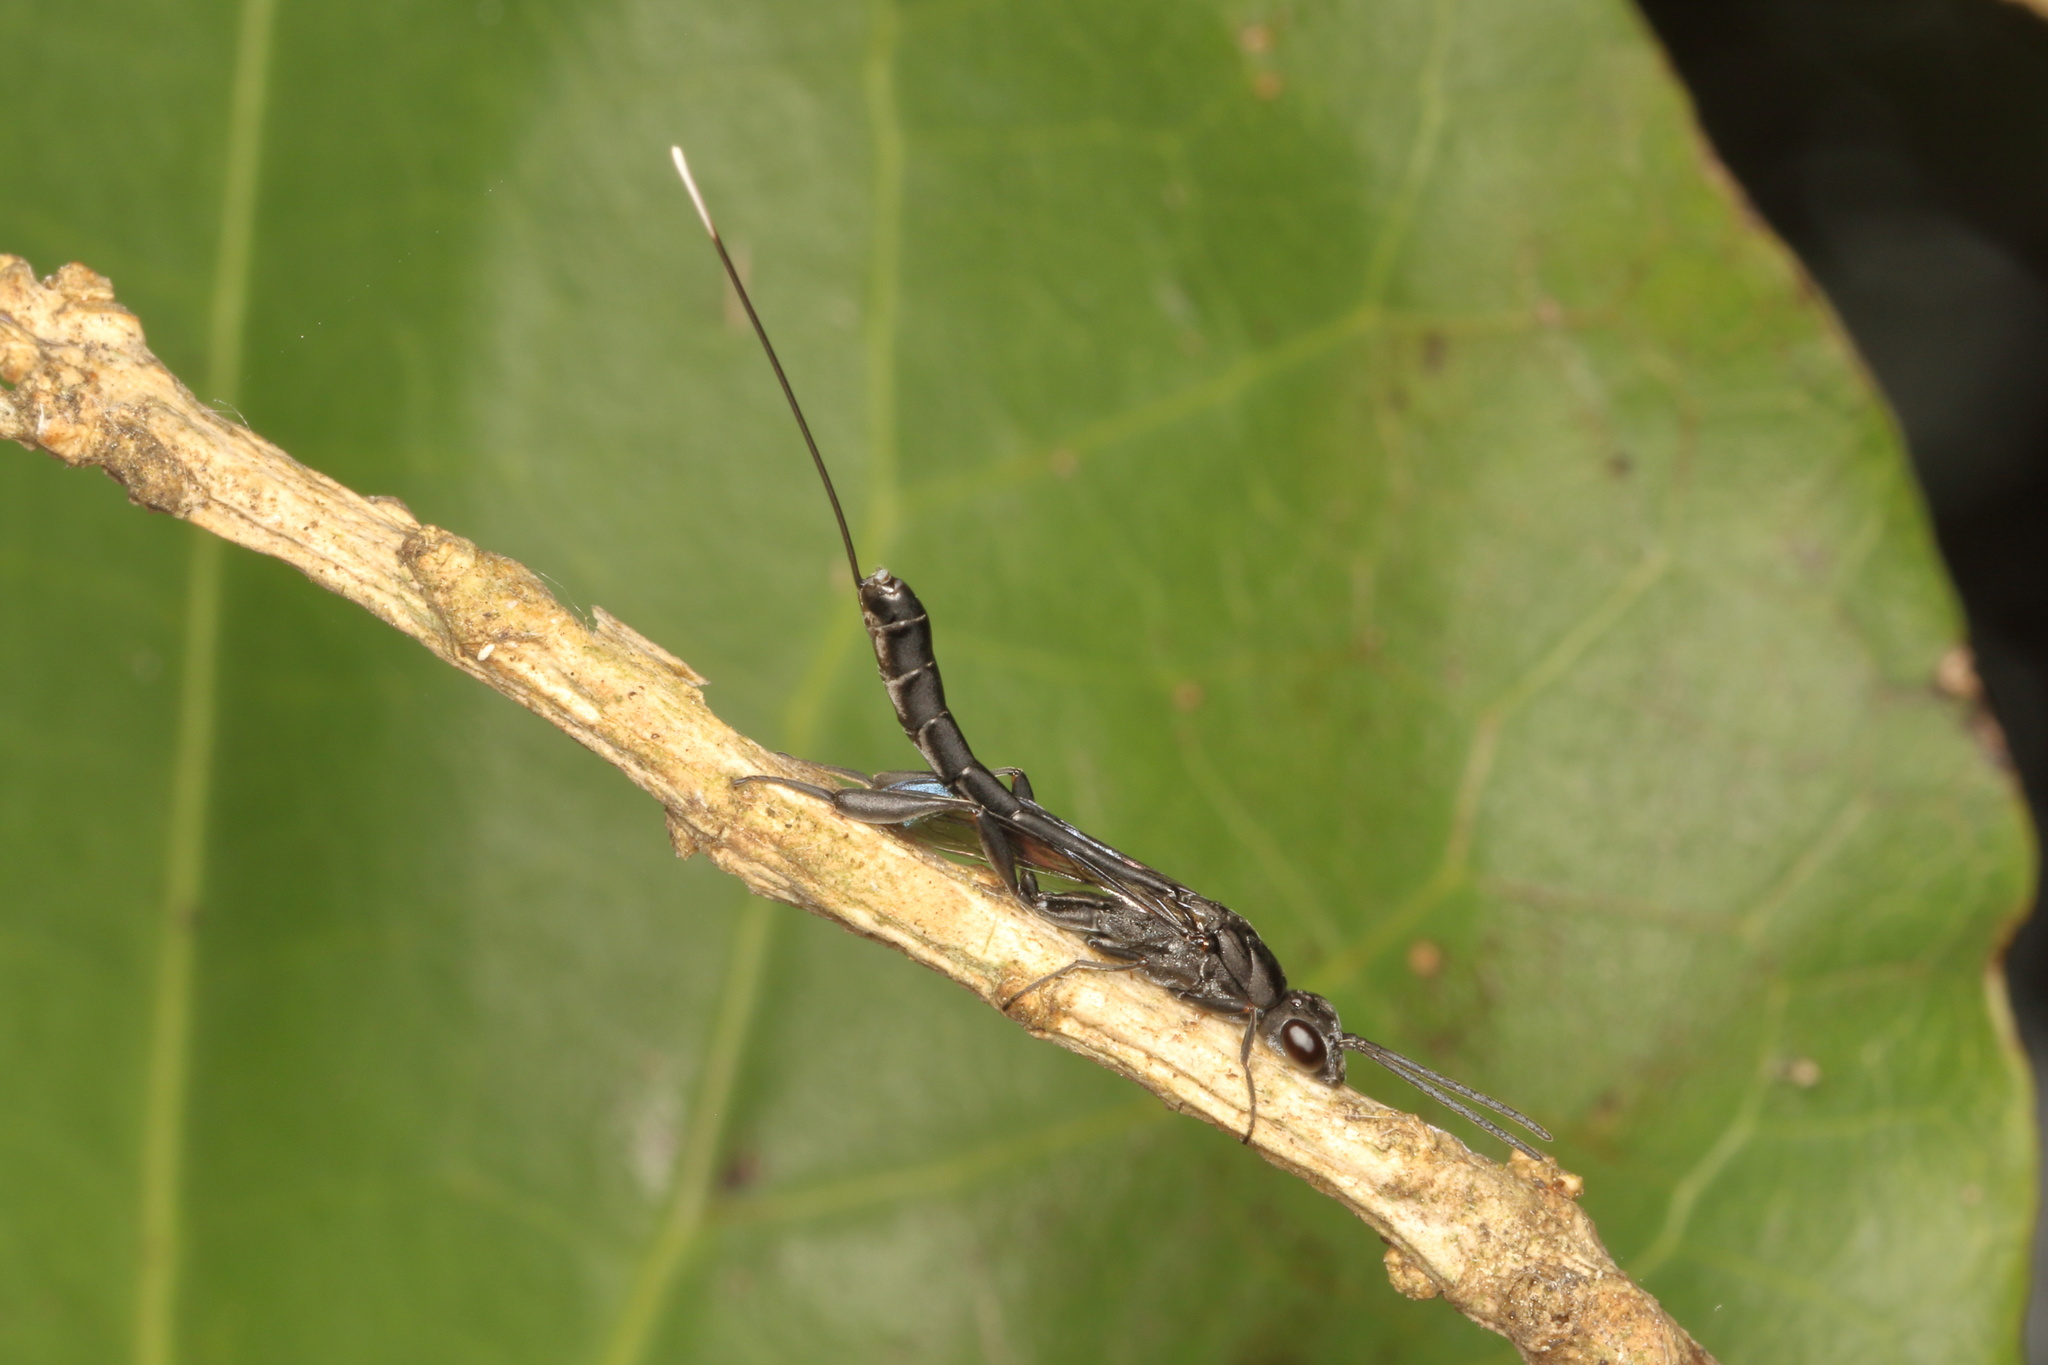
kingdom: Animalia
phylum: Arthropoda
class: Insecta
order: Hymenoptera
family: Gasteruptiidae
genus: Gasteruption
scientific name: Gasteruption
